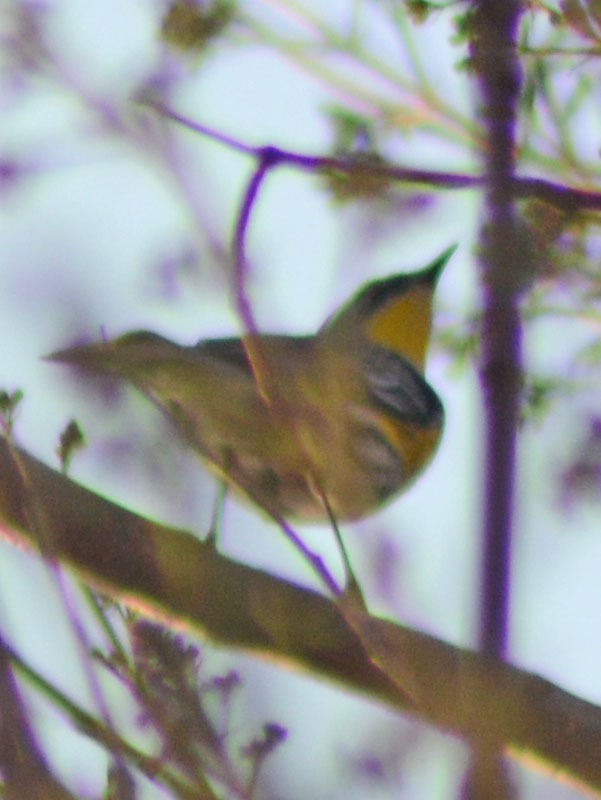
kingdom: Animalia
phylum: Chordata
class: Aves
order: Passeriformes
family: Parulidae
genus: Setophaga
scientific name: Setophaga auduboni
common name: Audubon's warbler
